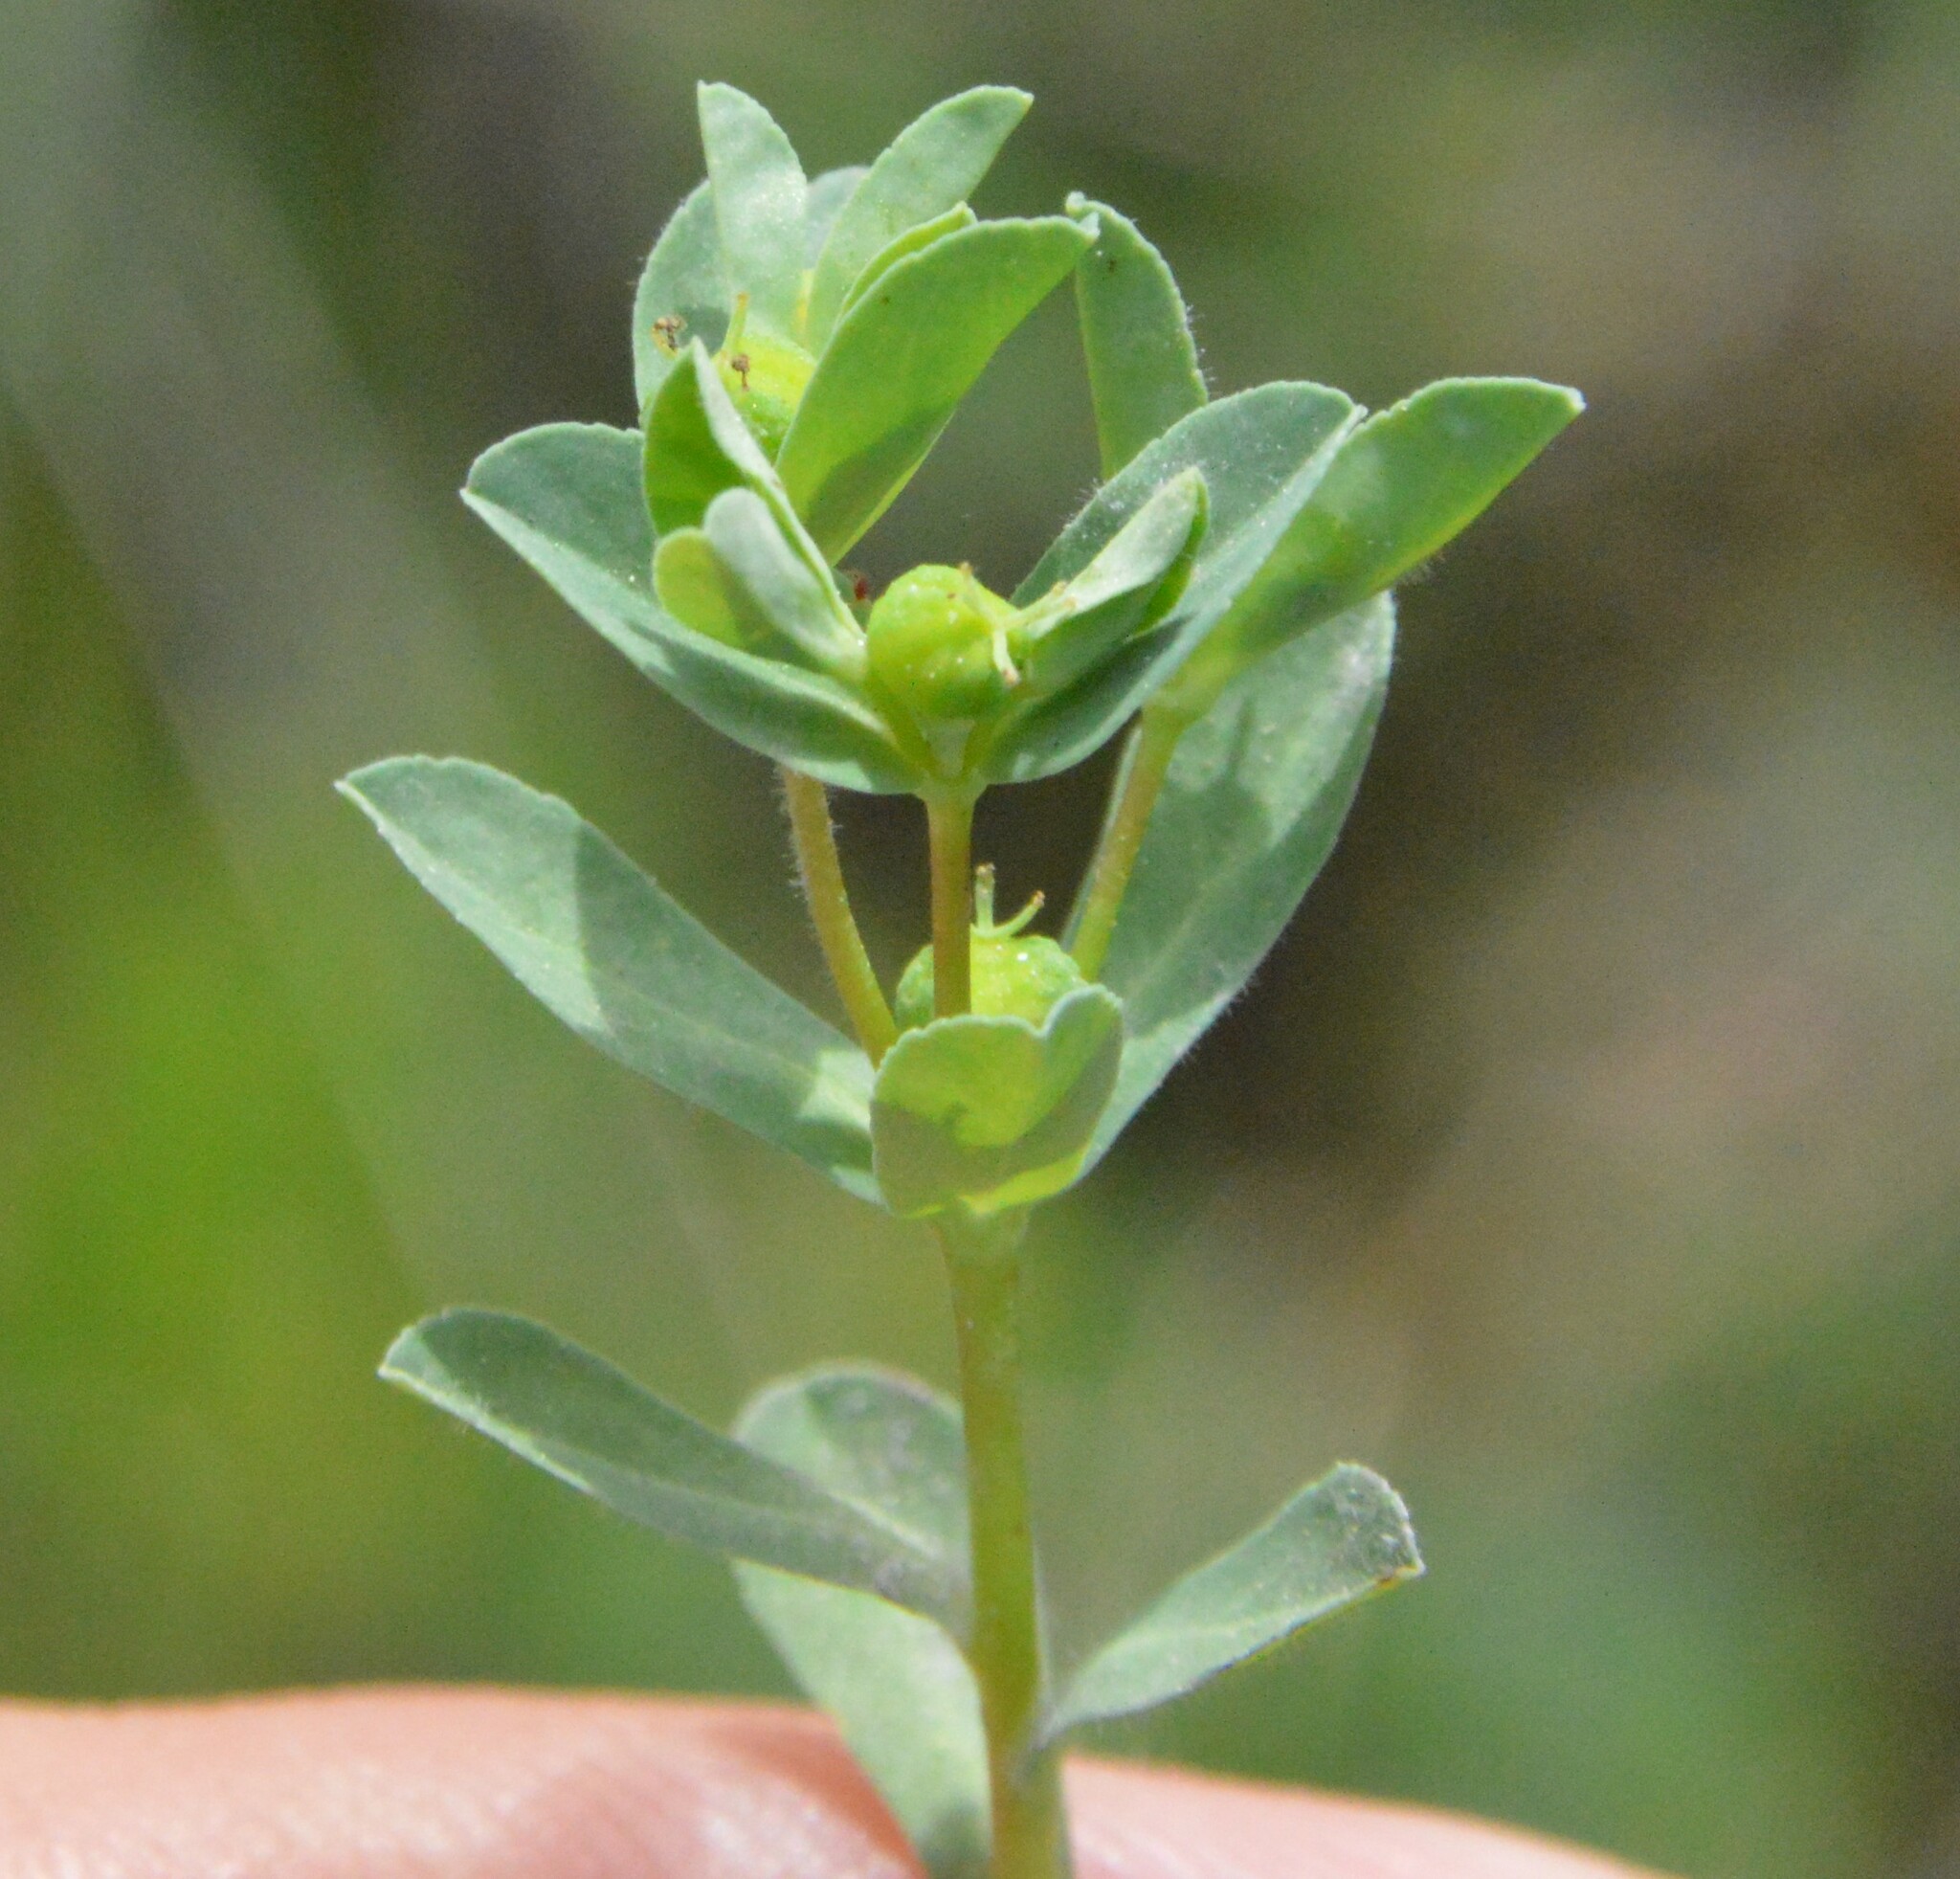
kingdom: Plantae
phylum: Tracheophyta
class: Magnoliopsida
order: Malpighiales
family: Euphorbiaceae
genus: Euphorbia
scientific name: Euphorbia texana
